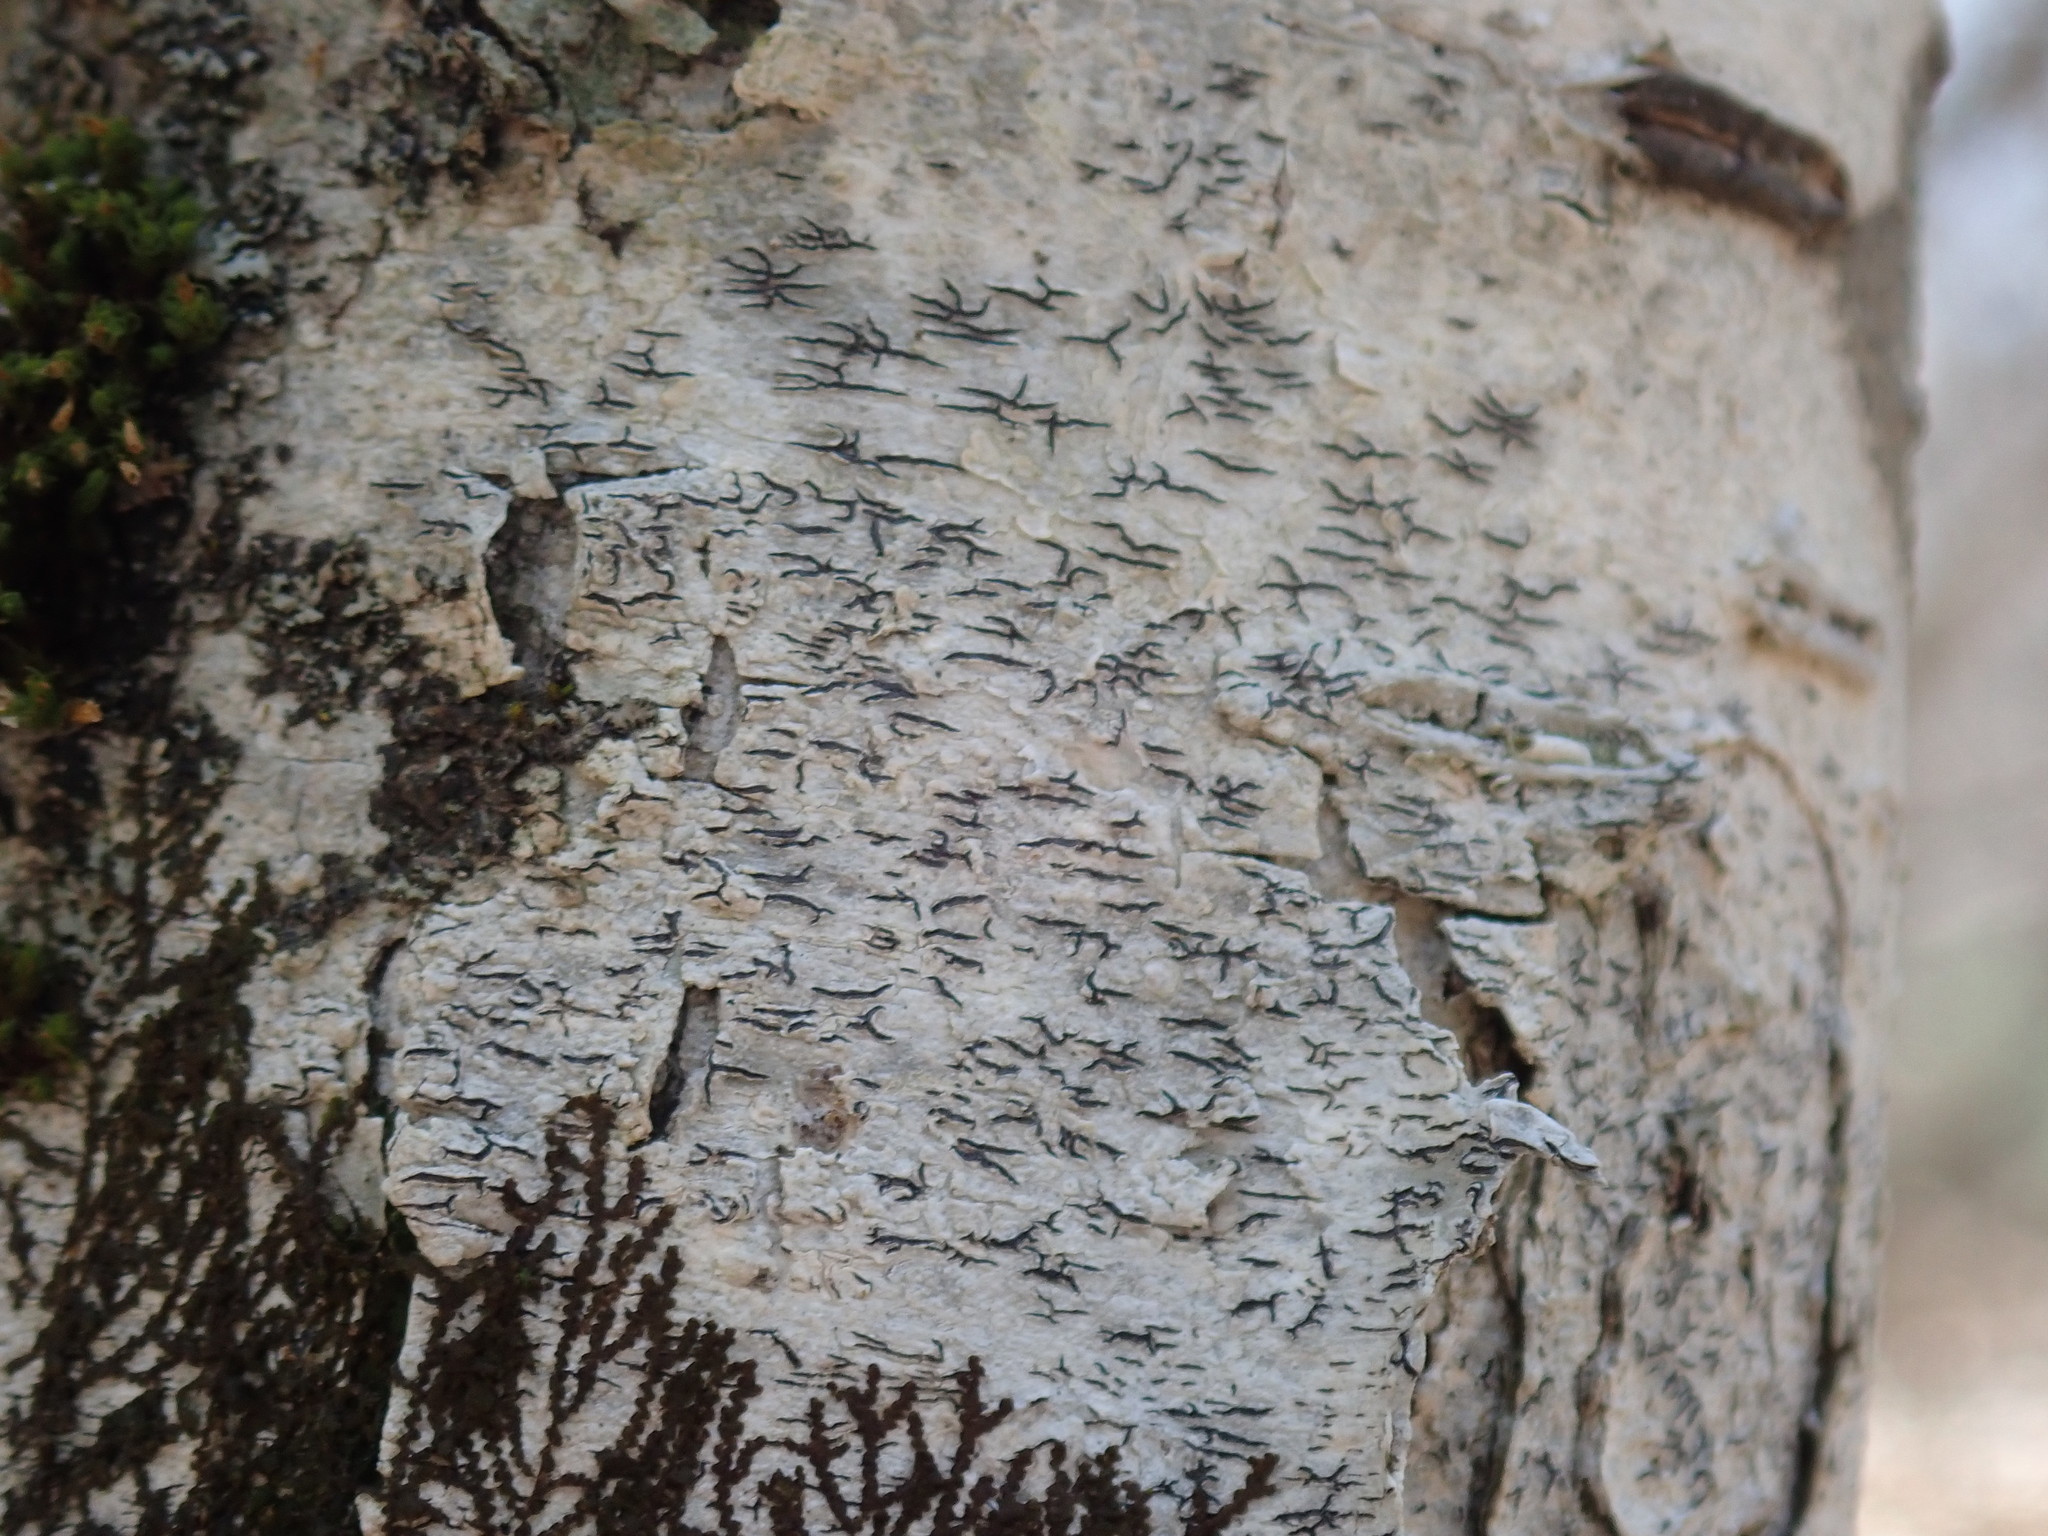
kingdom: Fungi
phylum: Ascomycota
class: Lecanoromycetes
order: Ostropales
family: Graphidaceae
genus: Graphis
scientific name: Graphis scripta
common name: Script lichen
